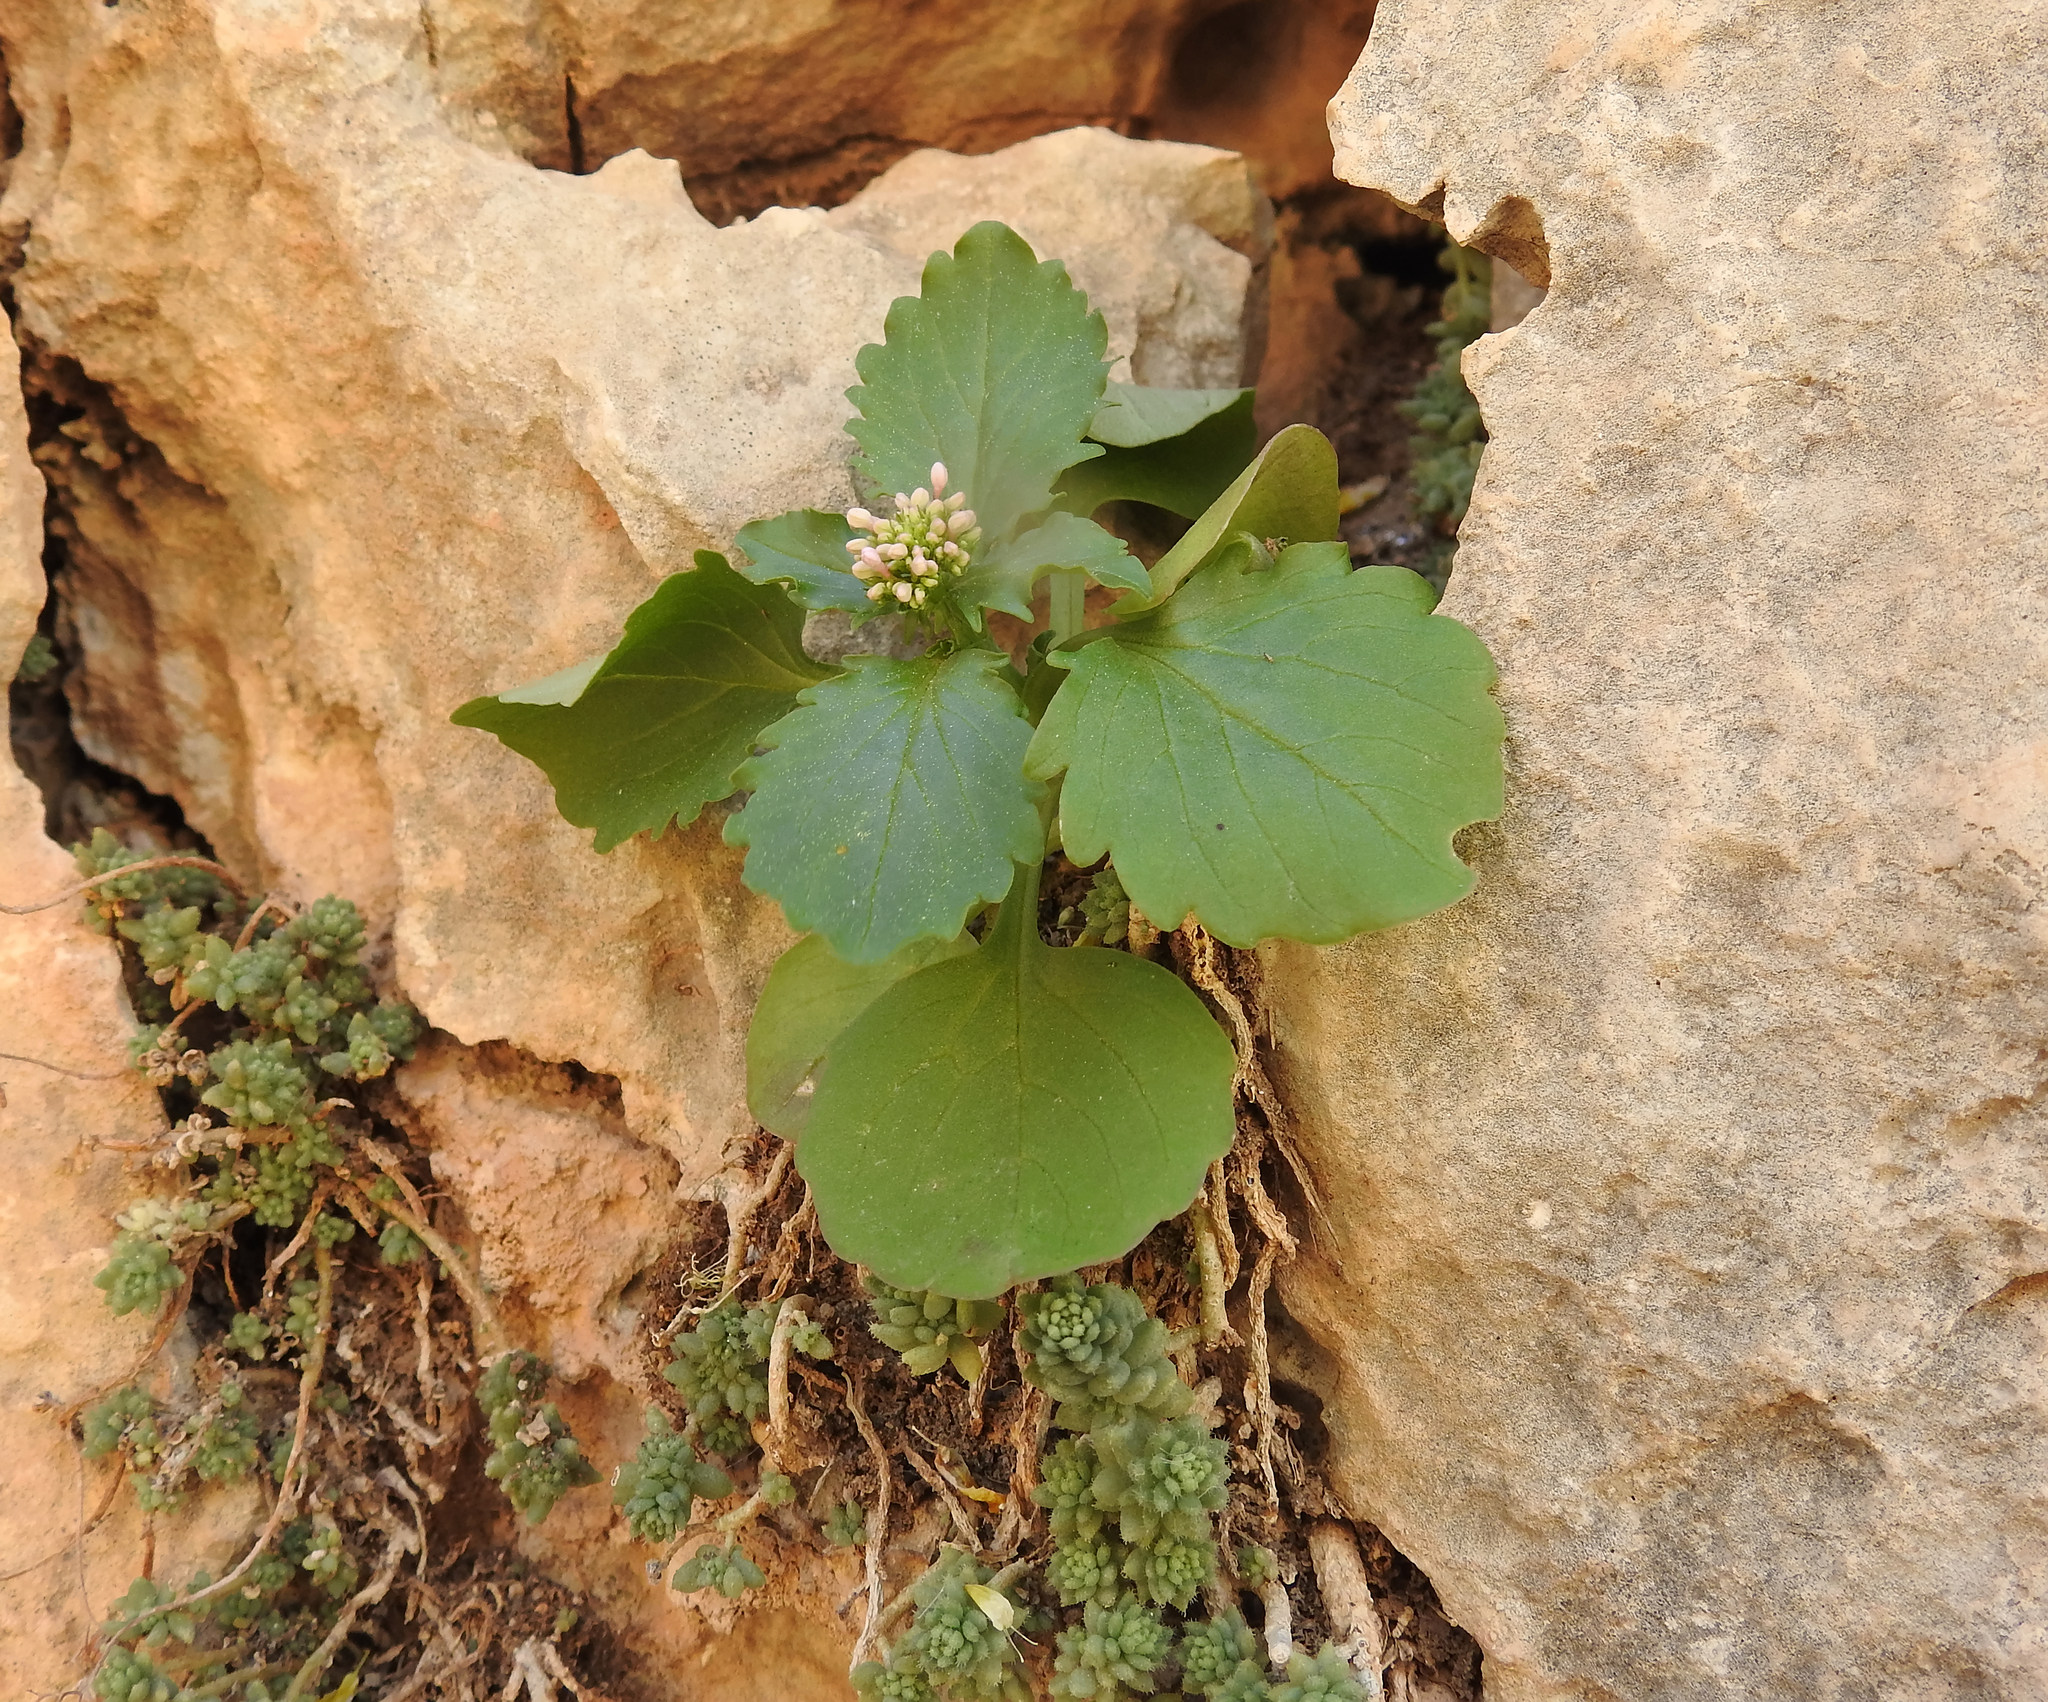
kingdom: Plantae
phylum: Tracheophyta
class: Magnoliopsida
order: Dipsacales
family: Caprifoliaceae
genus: Centranthus
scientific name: Centranthus calcitrapae
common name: Annual valerian
